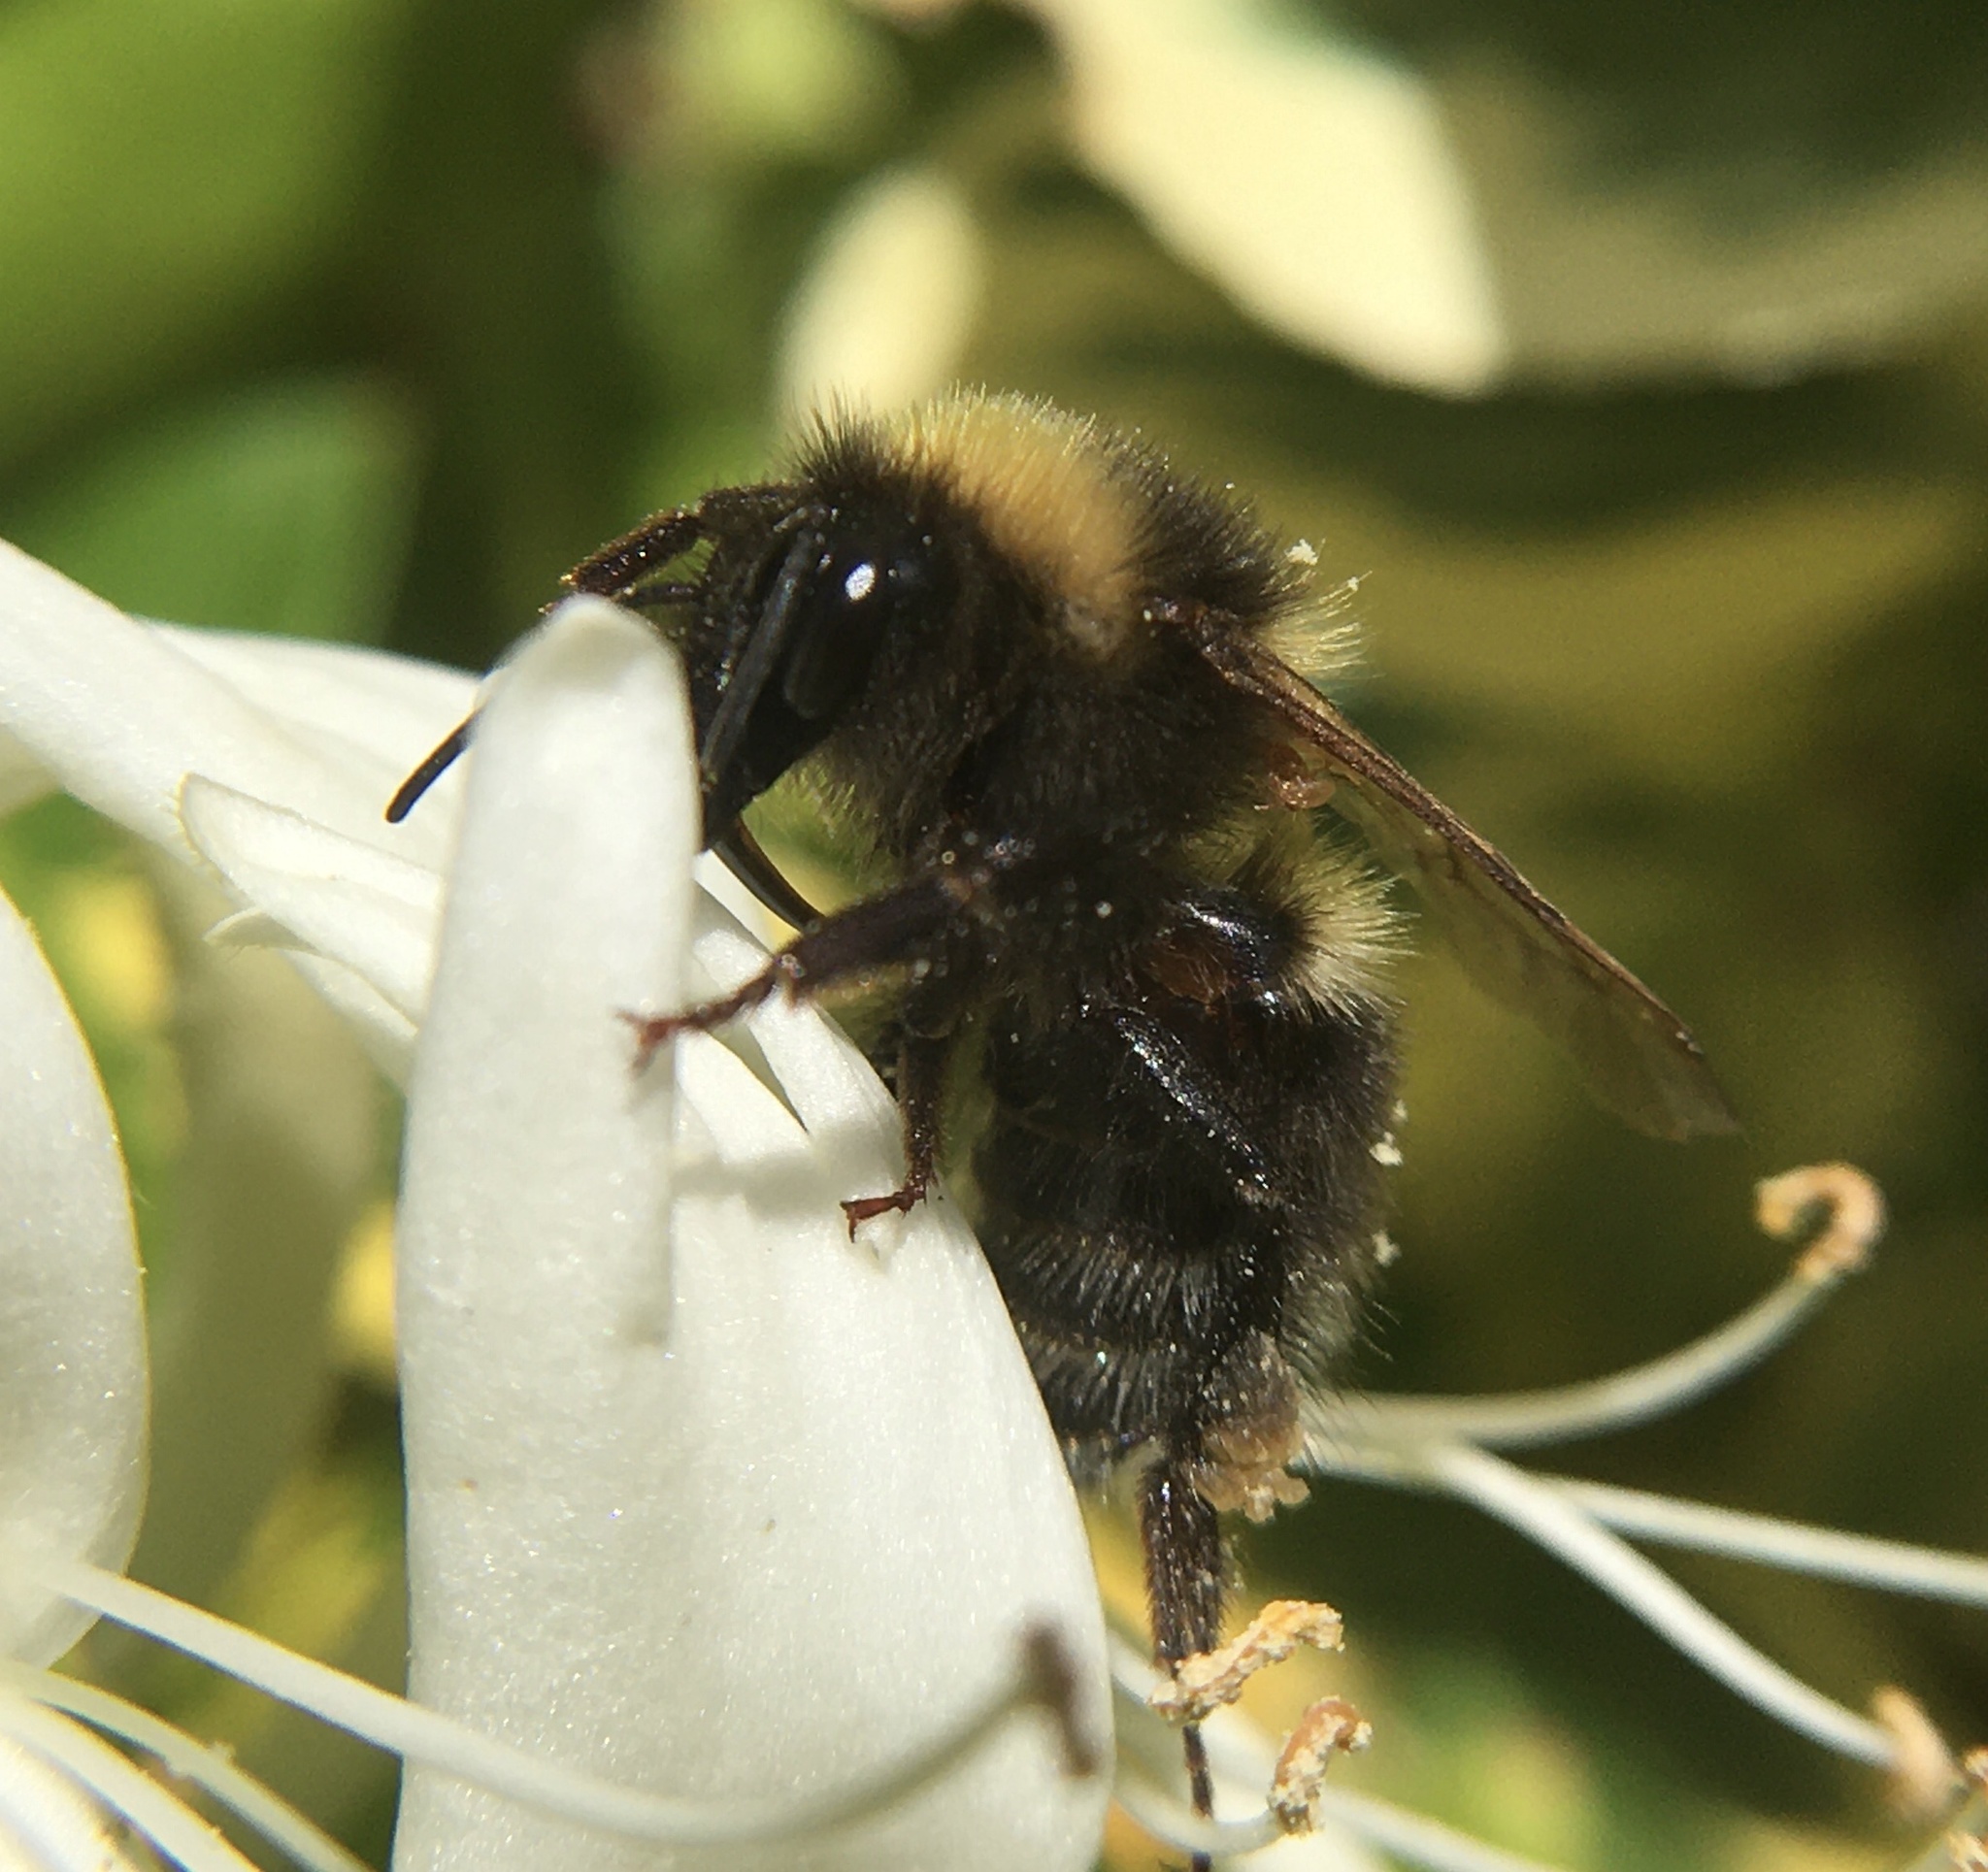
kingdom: Animalia
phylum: Arthropoda
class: Insecta
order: Hymenoptera
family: Apidae
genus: Bombus
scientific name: Bombus hortorum
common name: Garden bumblebee
